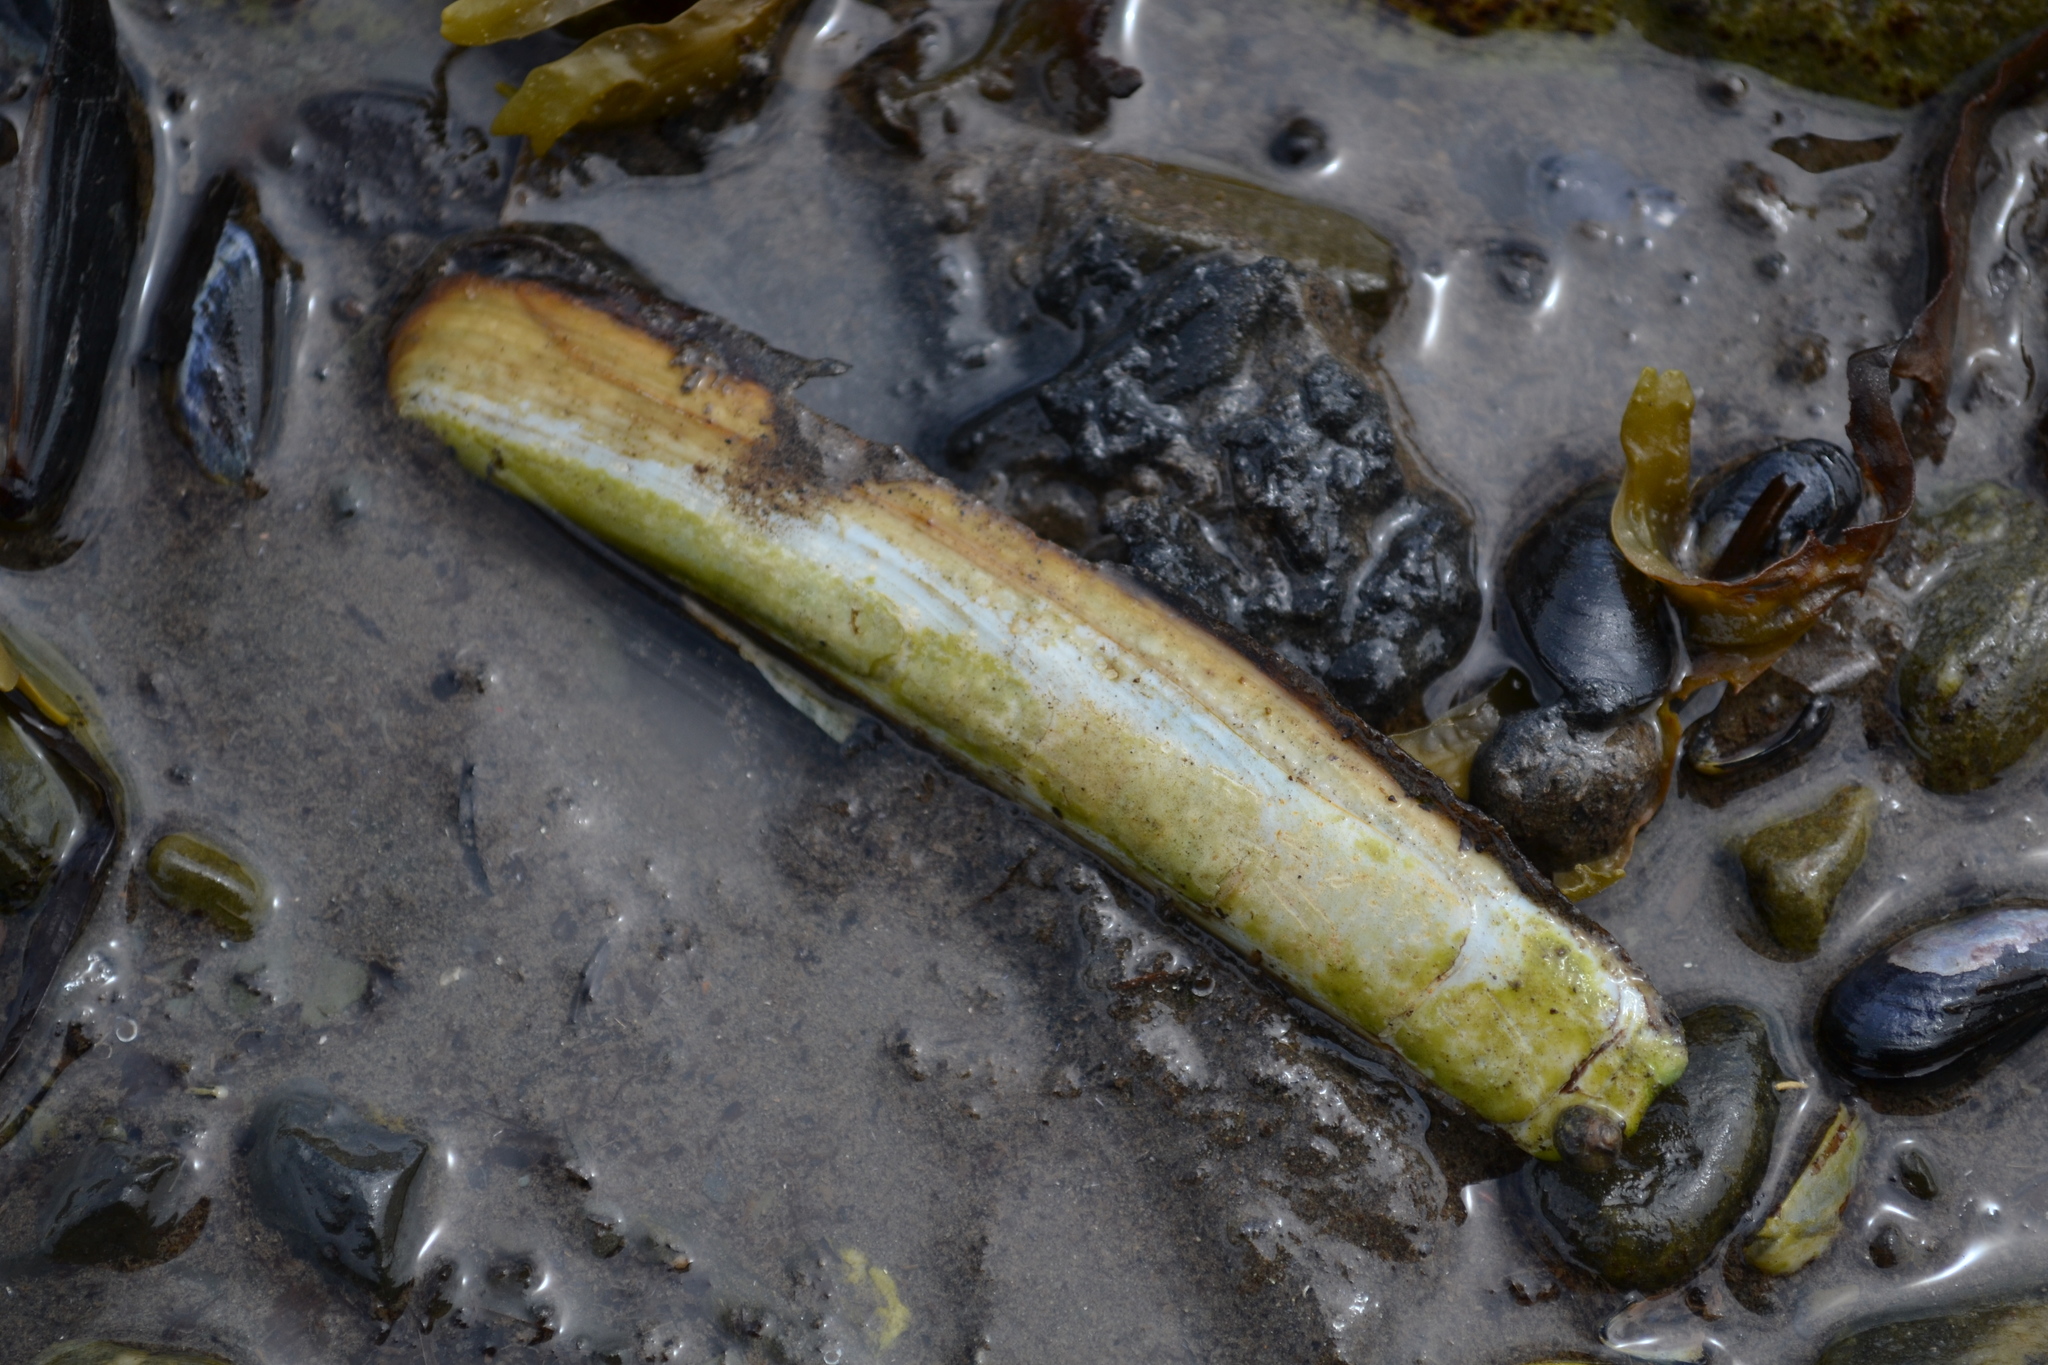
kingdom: Animalia
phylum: Mollusca
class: Bivalvia
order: Adapedonta
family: Pharidae
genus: Ensis
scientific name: Ensis leei
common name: American jack knife clam
